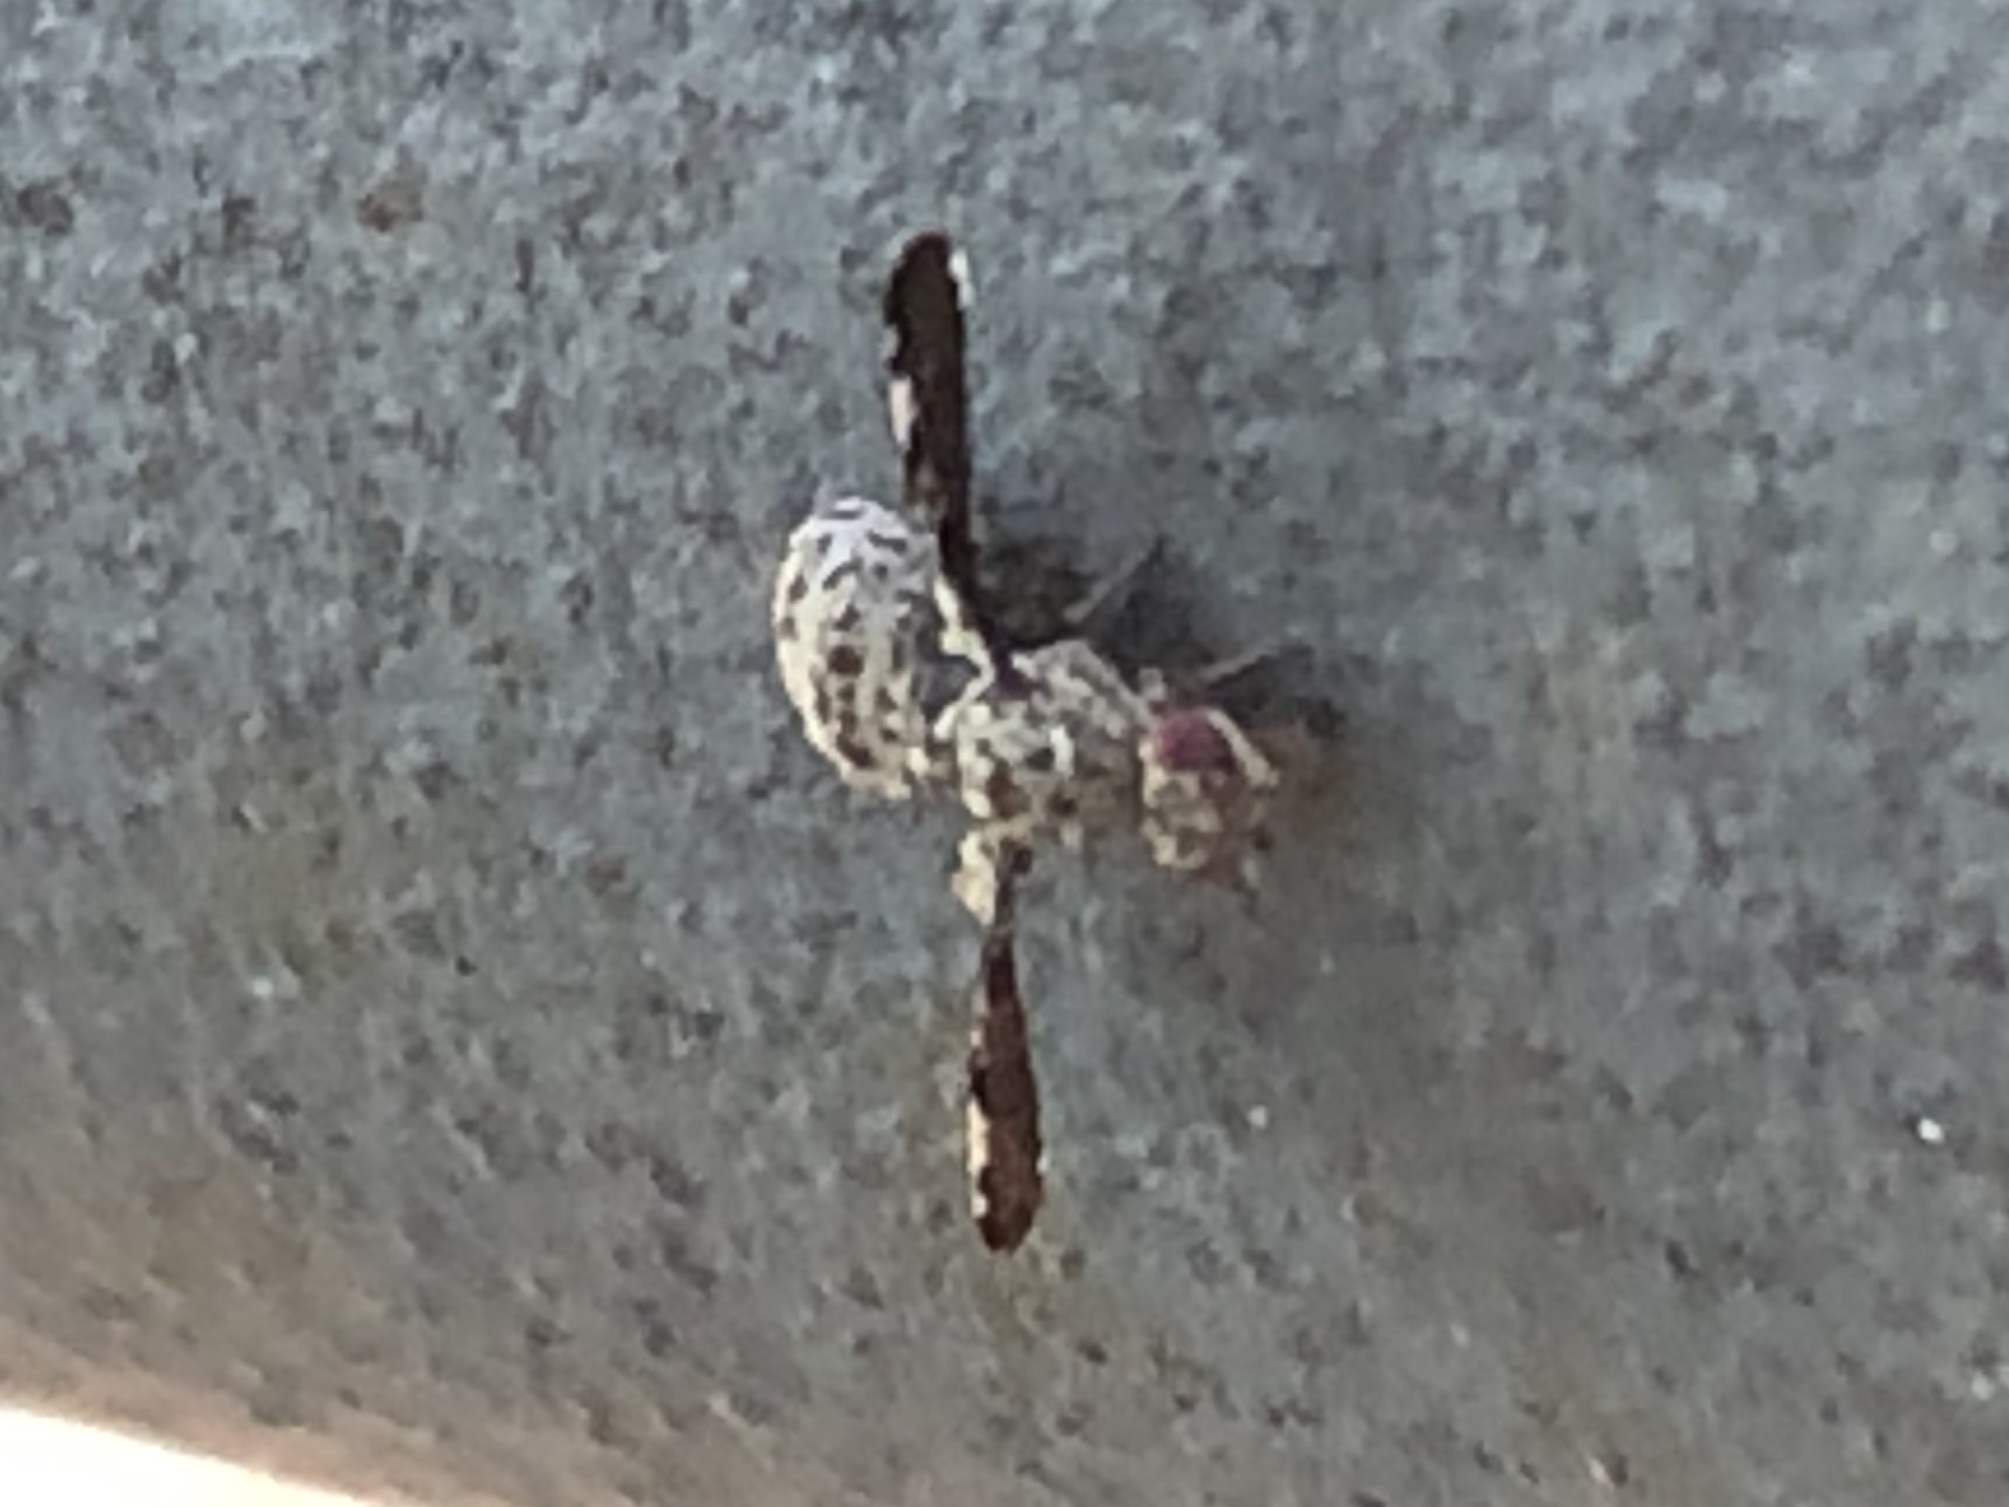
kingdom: Animalia
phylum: Arthropoda
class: Insecta
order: Diptera
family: Ulidiidae
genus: Callopistromyia
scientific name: Callopistromyia strigula
